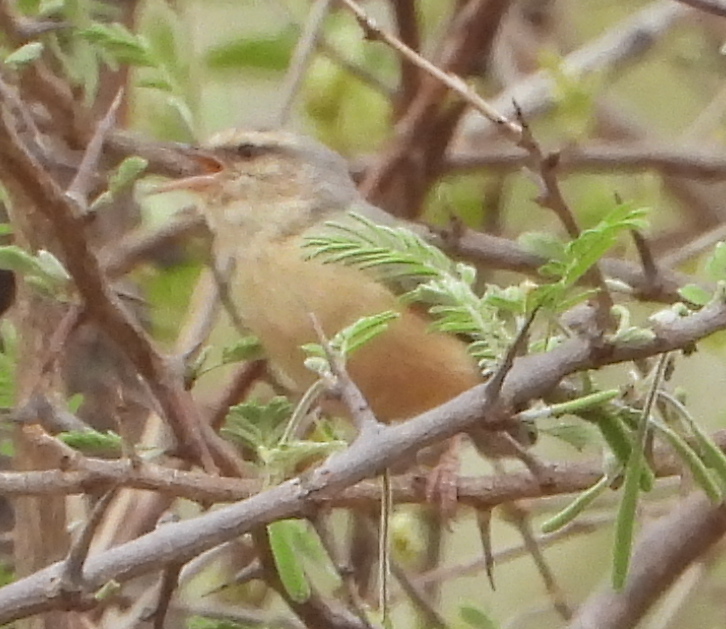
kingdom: Animalia
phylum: Chordata
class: Aves
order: Passeriformes
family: Macrosphenidae
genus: Sylvietta
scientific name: Sylvietta rufescens
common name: Long-billed crombec
